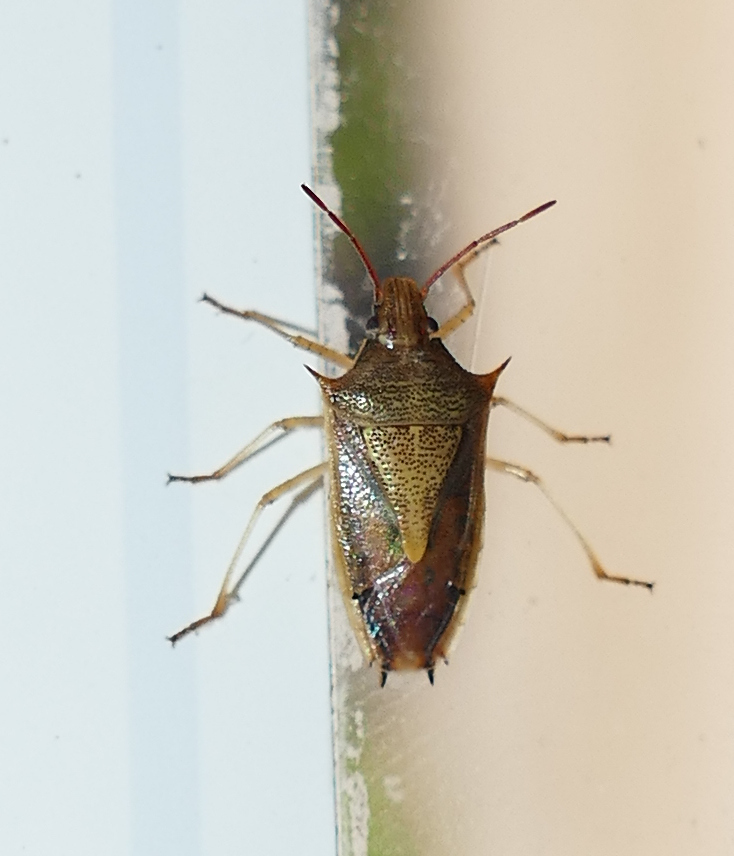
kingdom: Animalia
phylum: Arthropoda
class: Insecta
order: Hemiptera
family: Pentatomidae
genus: Oebalus
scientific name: Oebalus pugnax
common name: Rice stink bug
